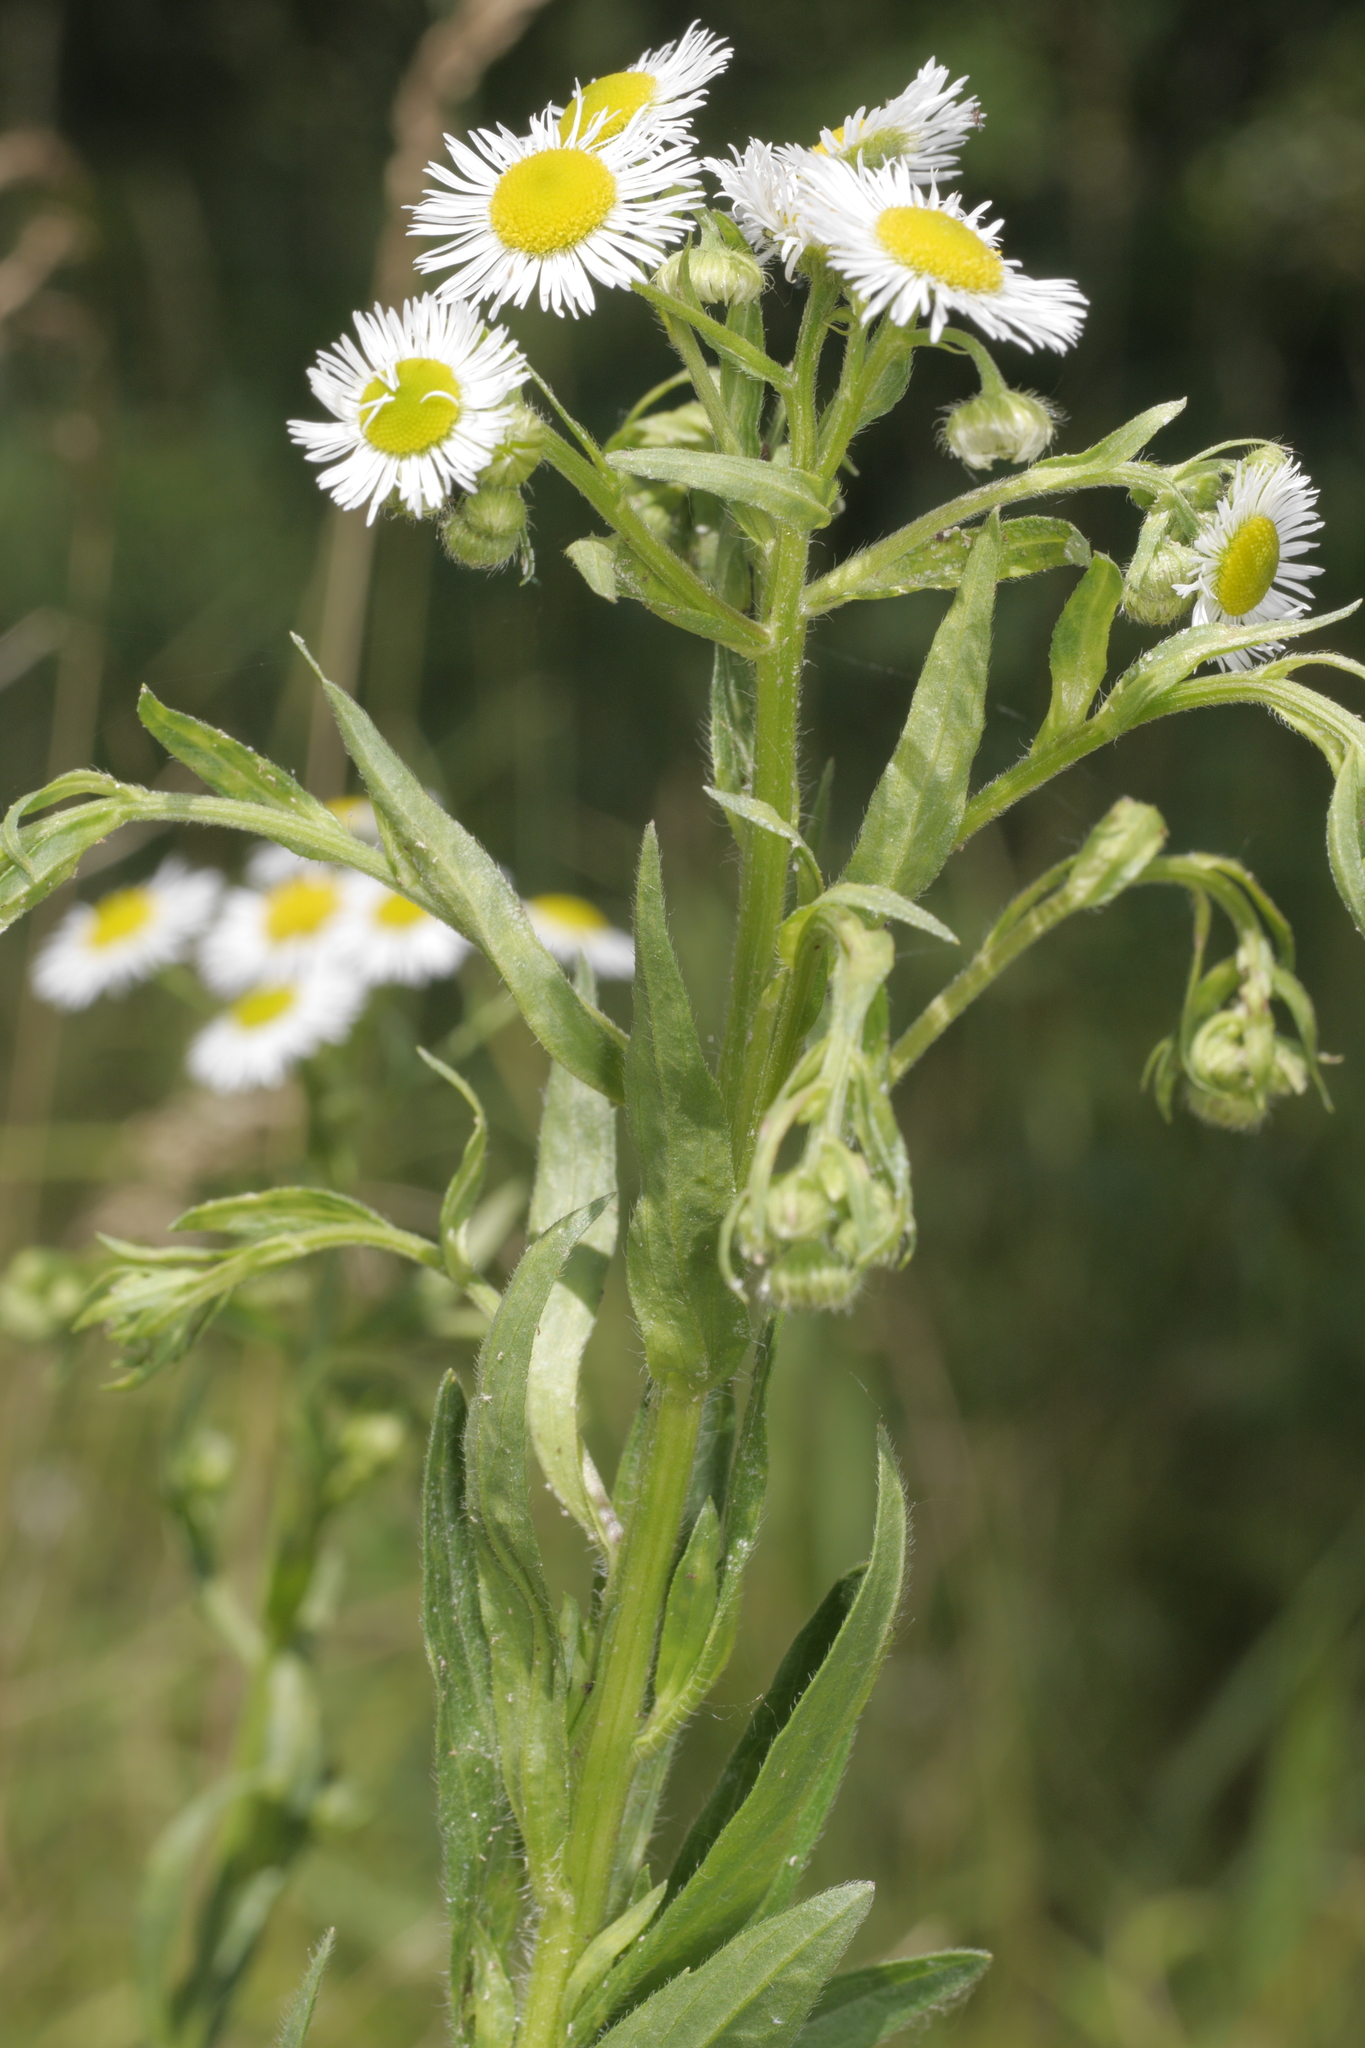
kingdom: Plantae
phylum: Tracheophyta
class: Magnoliopsida
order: Asterales
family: Asteraceae
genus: Erigeron
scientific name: Erigeron annuus
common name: Tall fleabane
